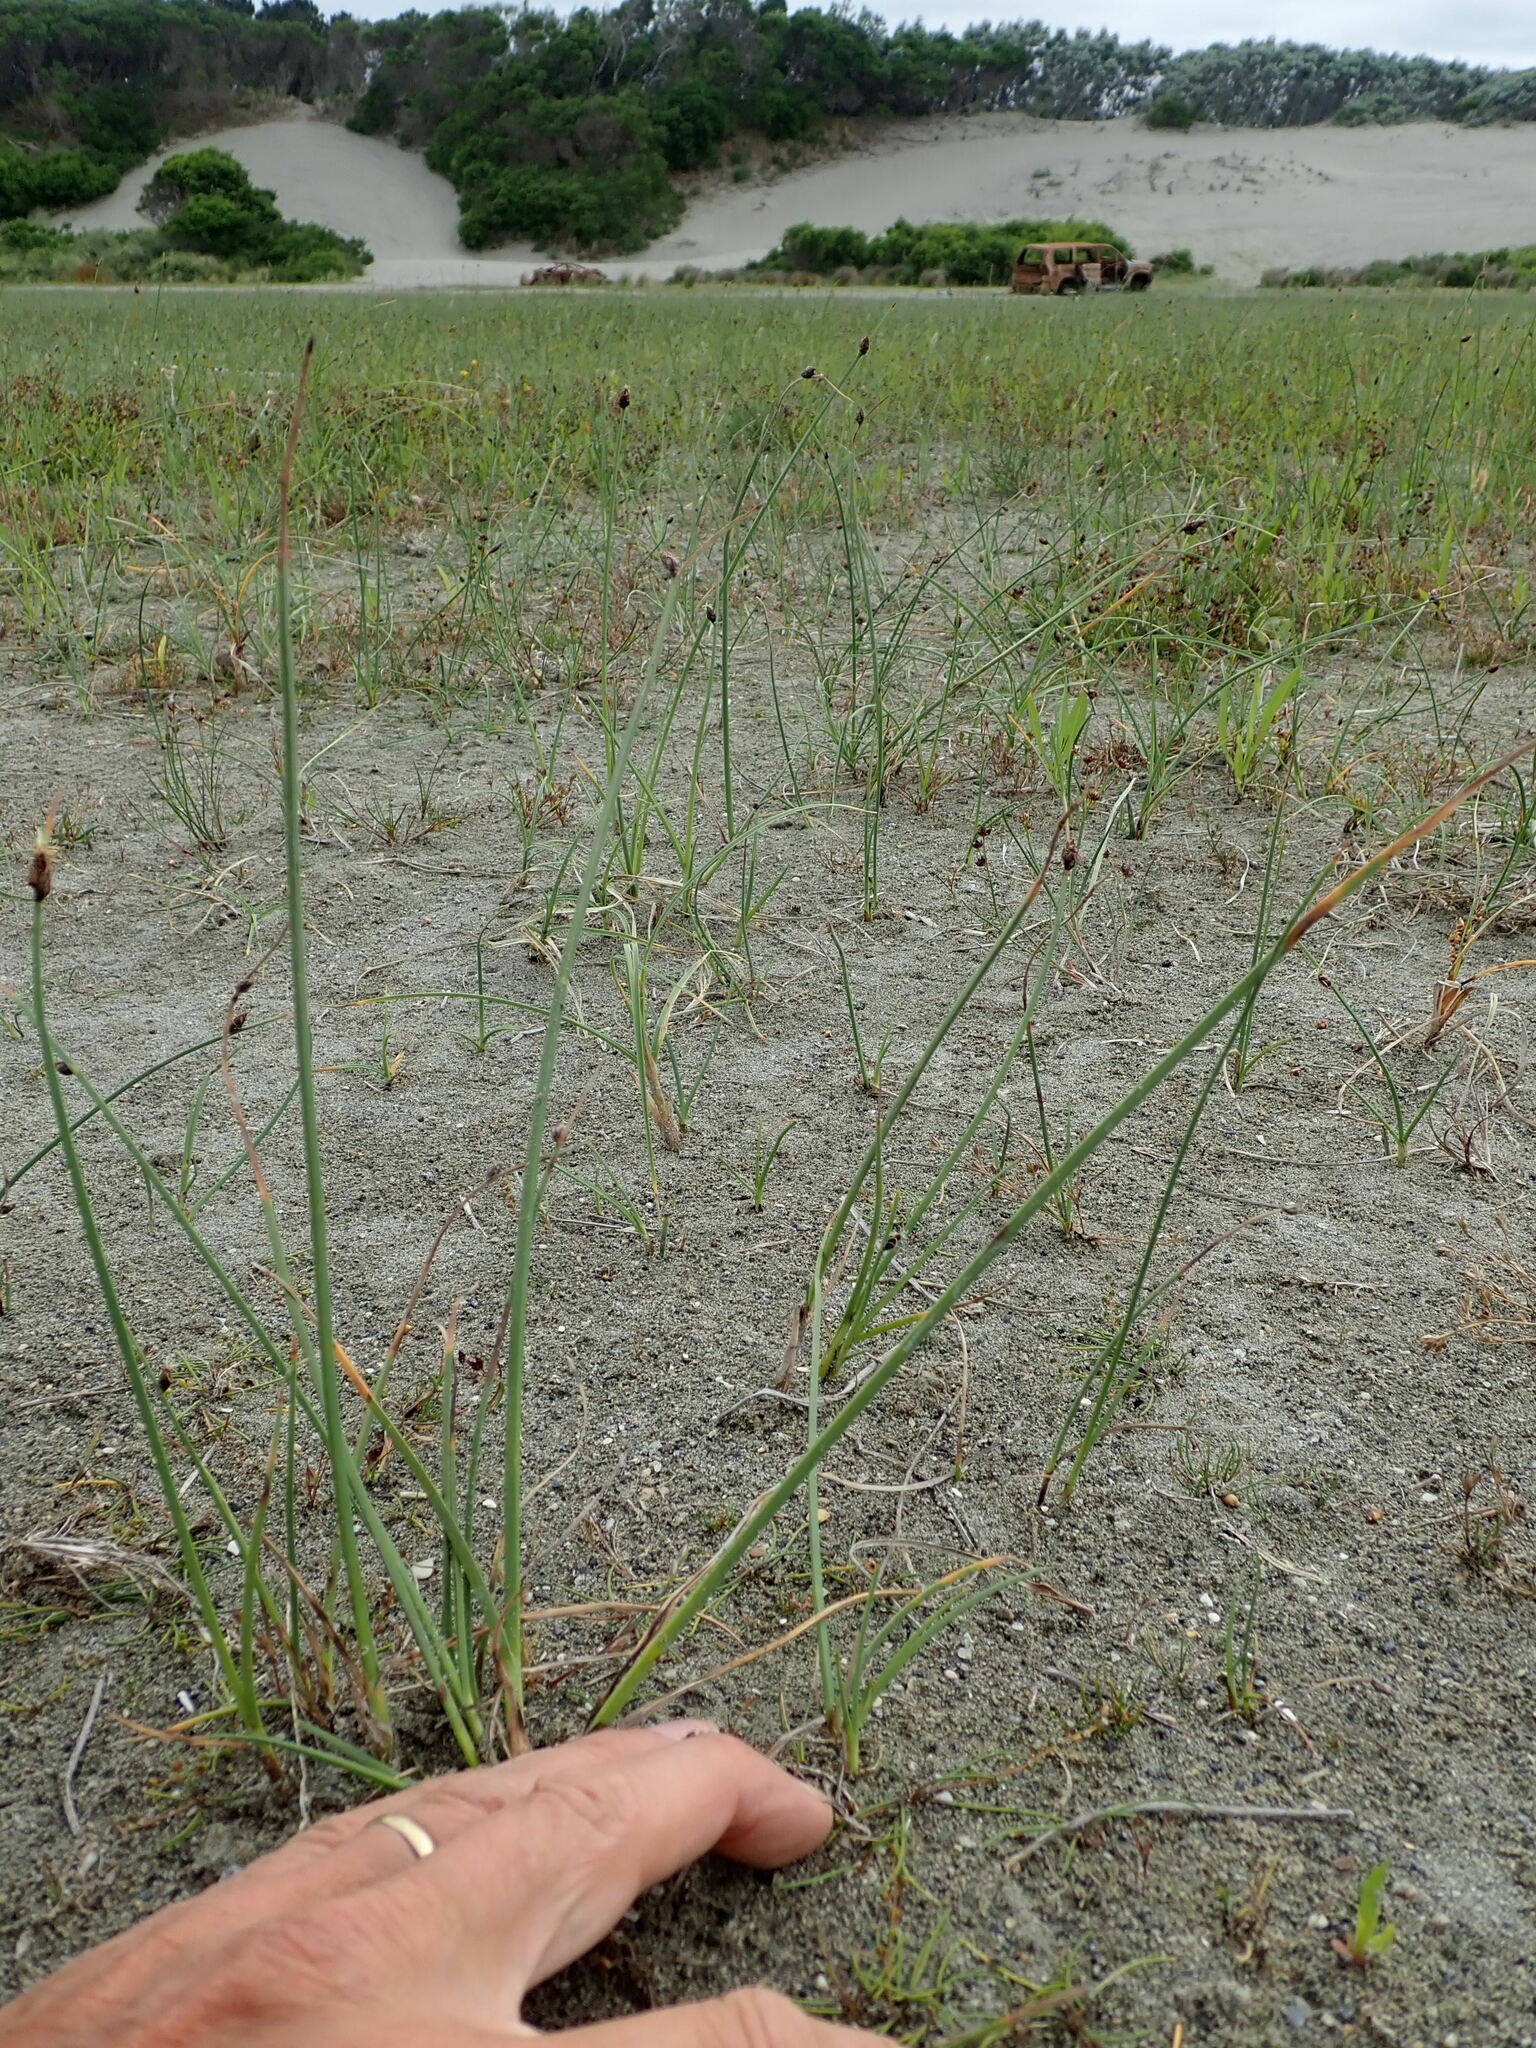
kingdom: Plantae
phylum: Tracheophyta
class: Liliopsida
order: Alismatales
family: Juncaginaceae
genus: Triglochin
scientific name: Triglochin striata
